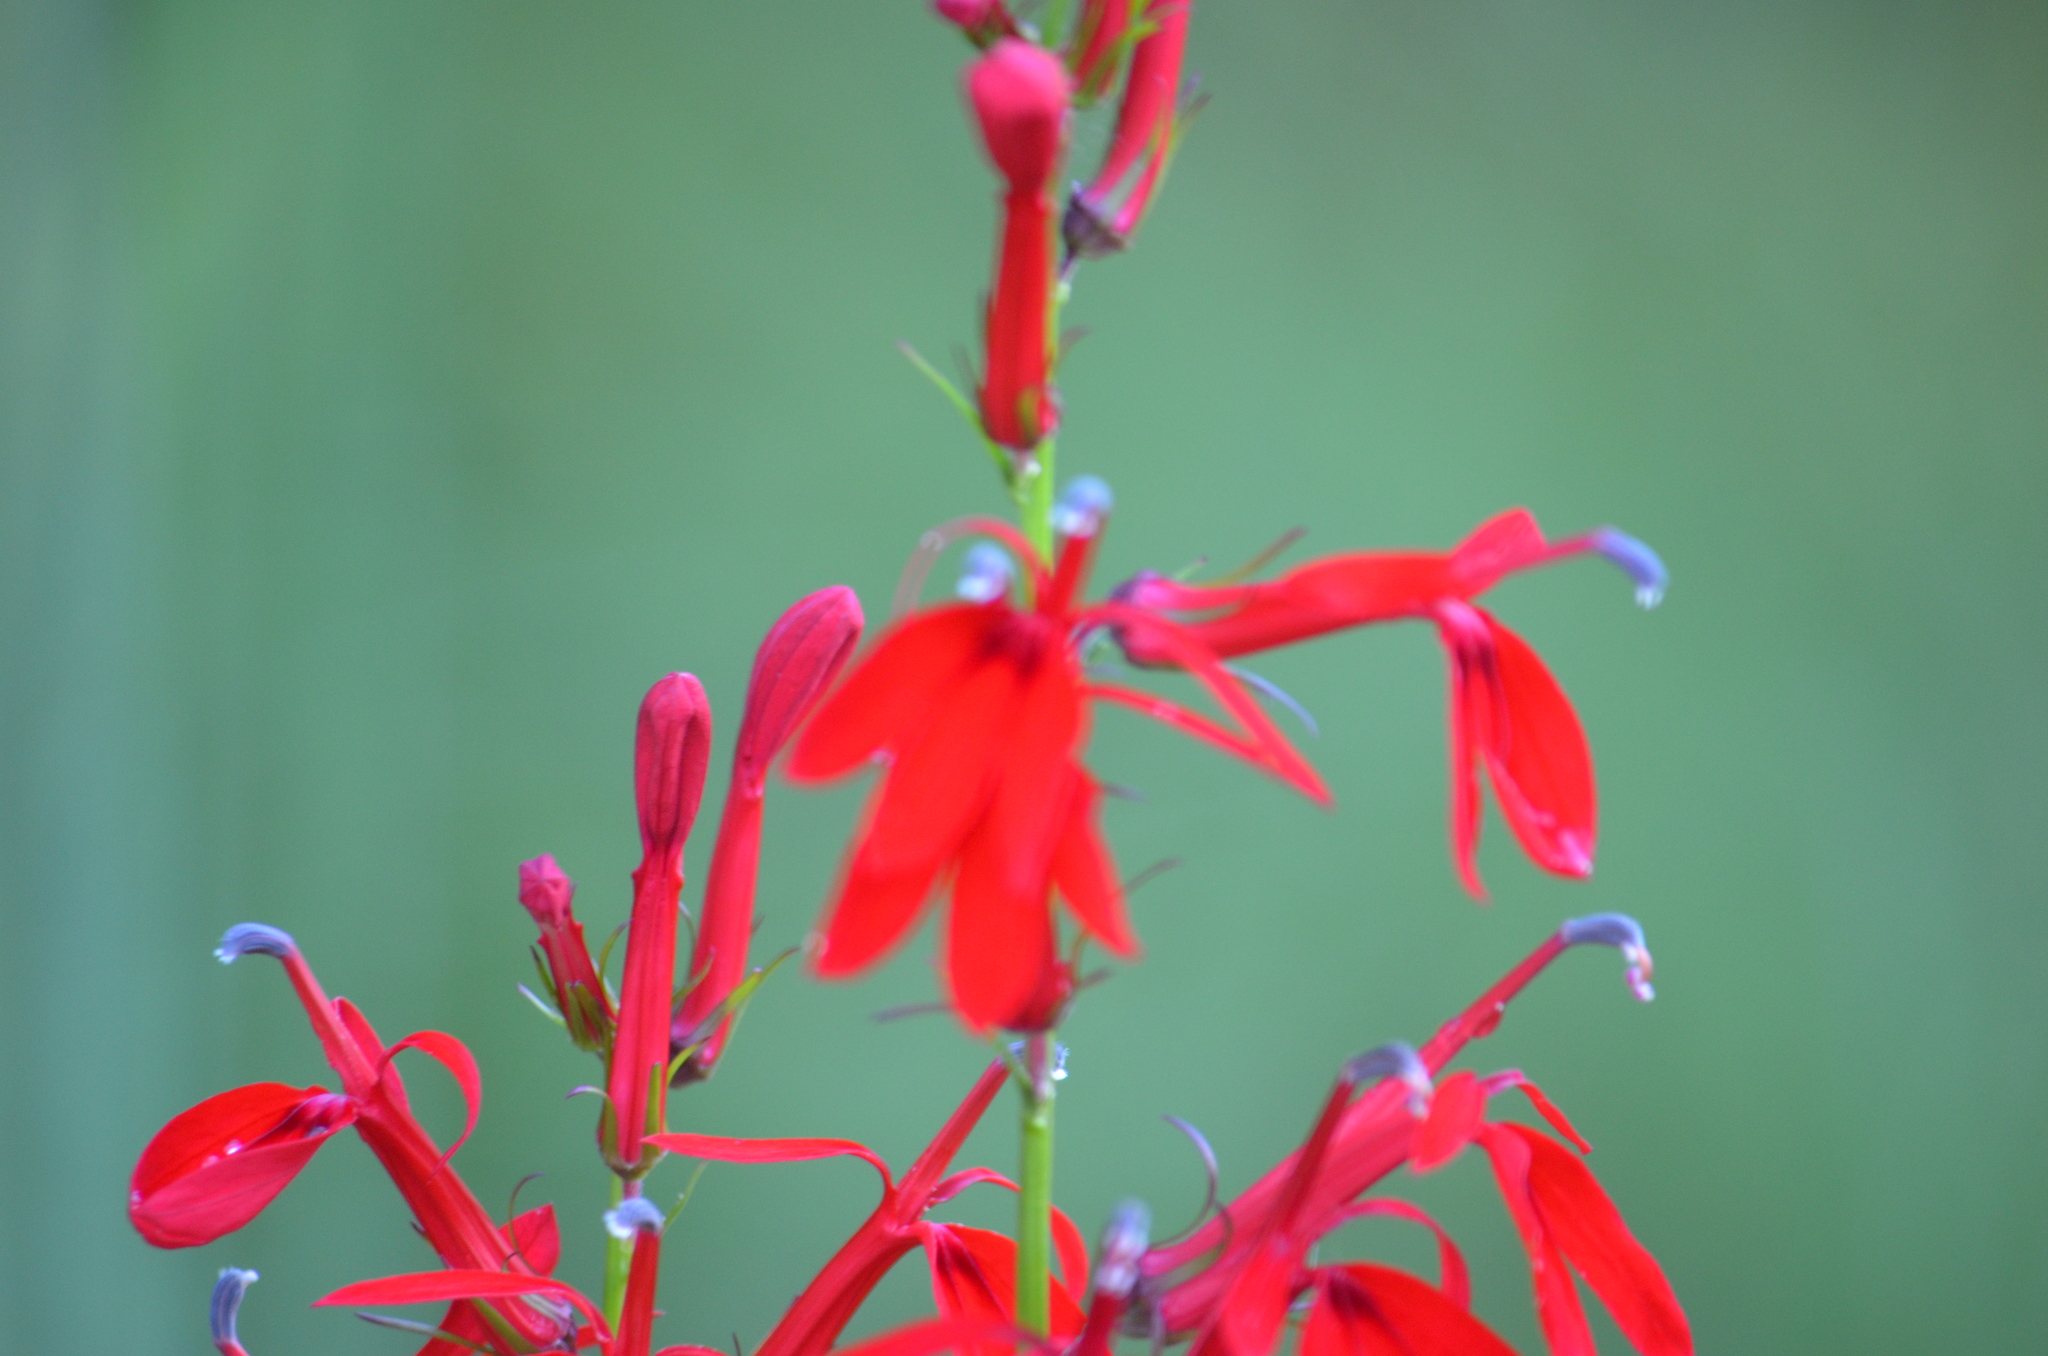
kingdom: Plantae
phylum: Tracheophyta
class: Magnoliopsida
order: Asterales
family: Campanulaceae
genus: Lobelia
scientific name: Lobelia cardinalis
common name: Cardinal flower
